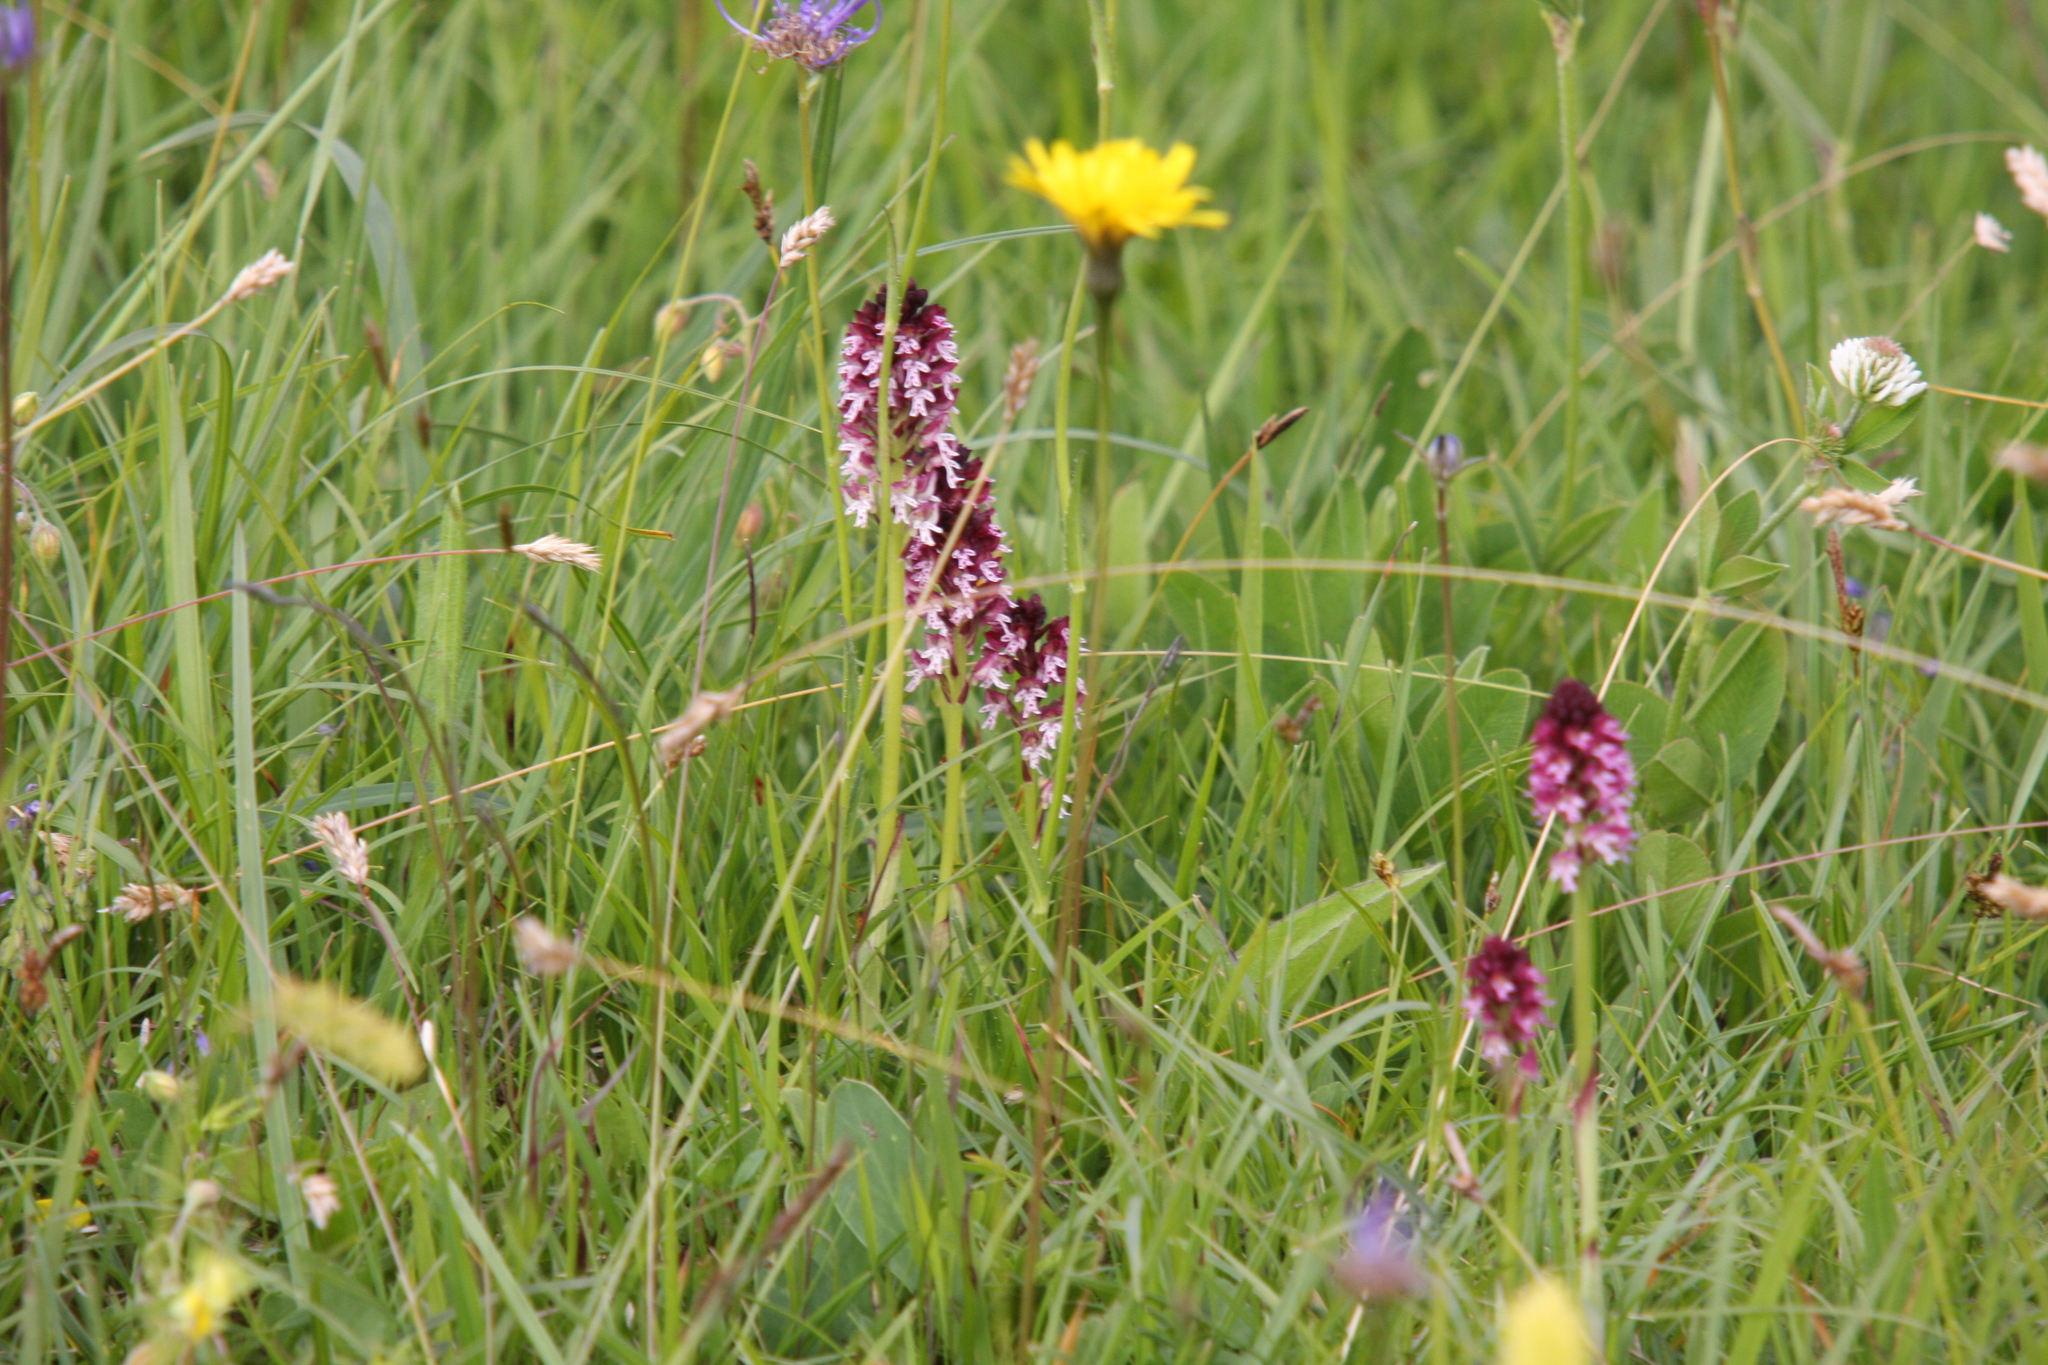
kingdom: Plantae
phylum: Tracheophyta
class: Liliopsida
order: Asparagales
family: Orchidaceae
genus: Neotinea
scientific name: Neotinea ustulata
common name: Burnt orchid
